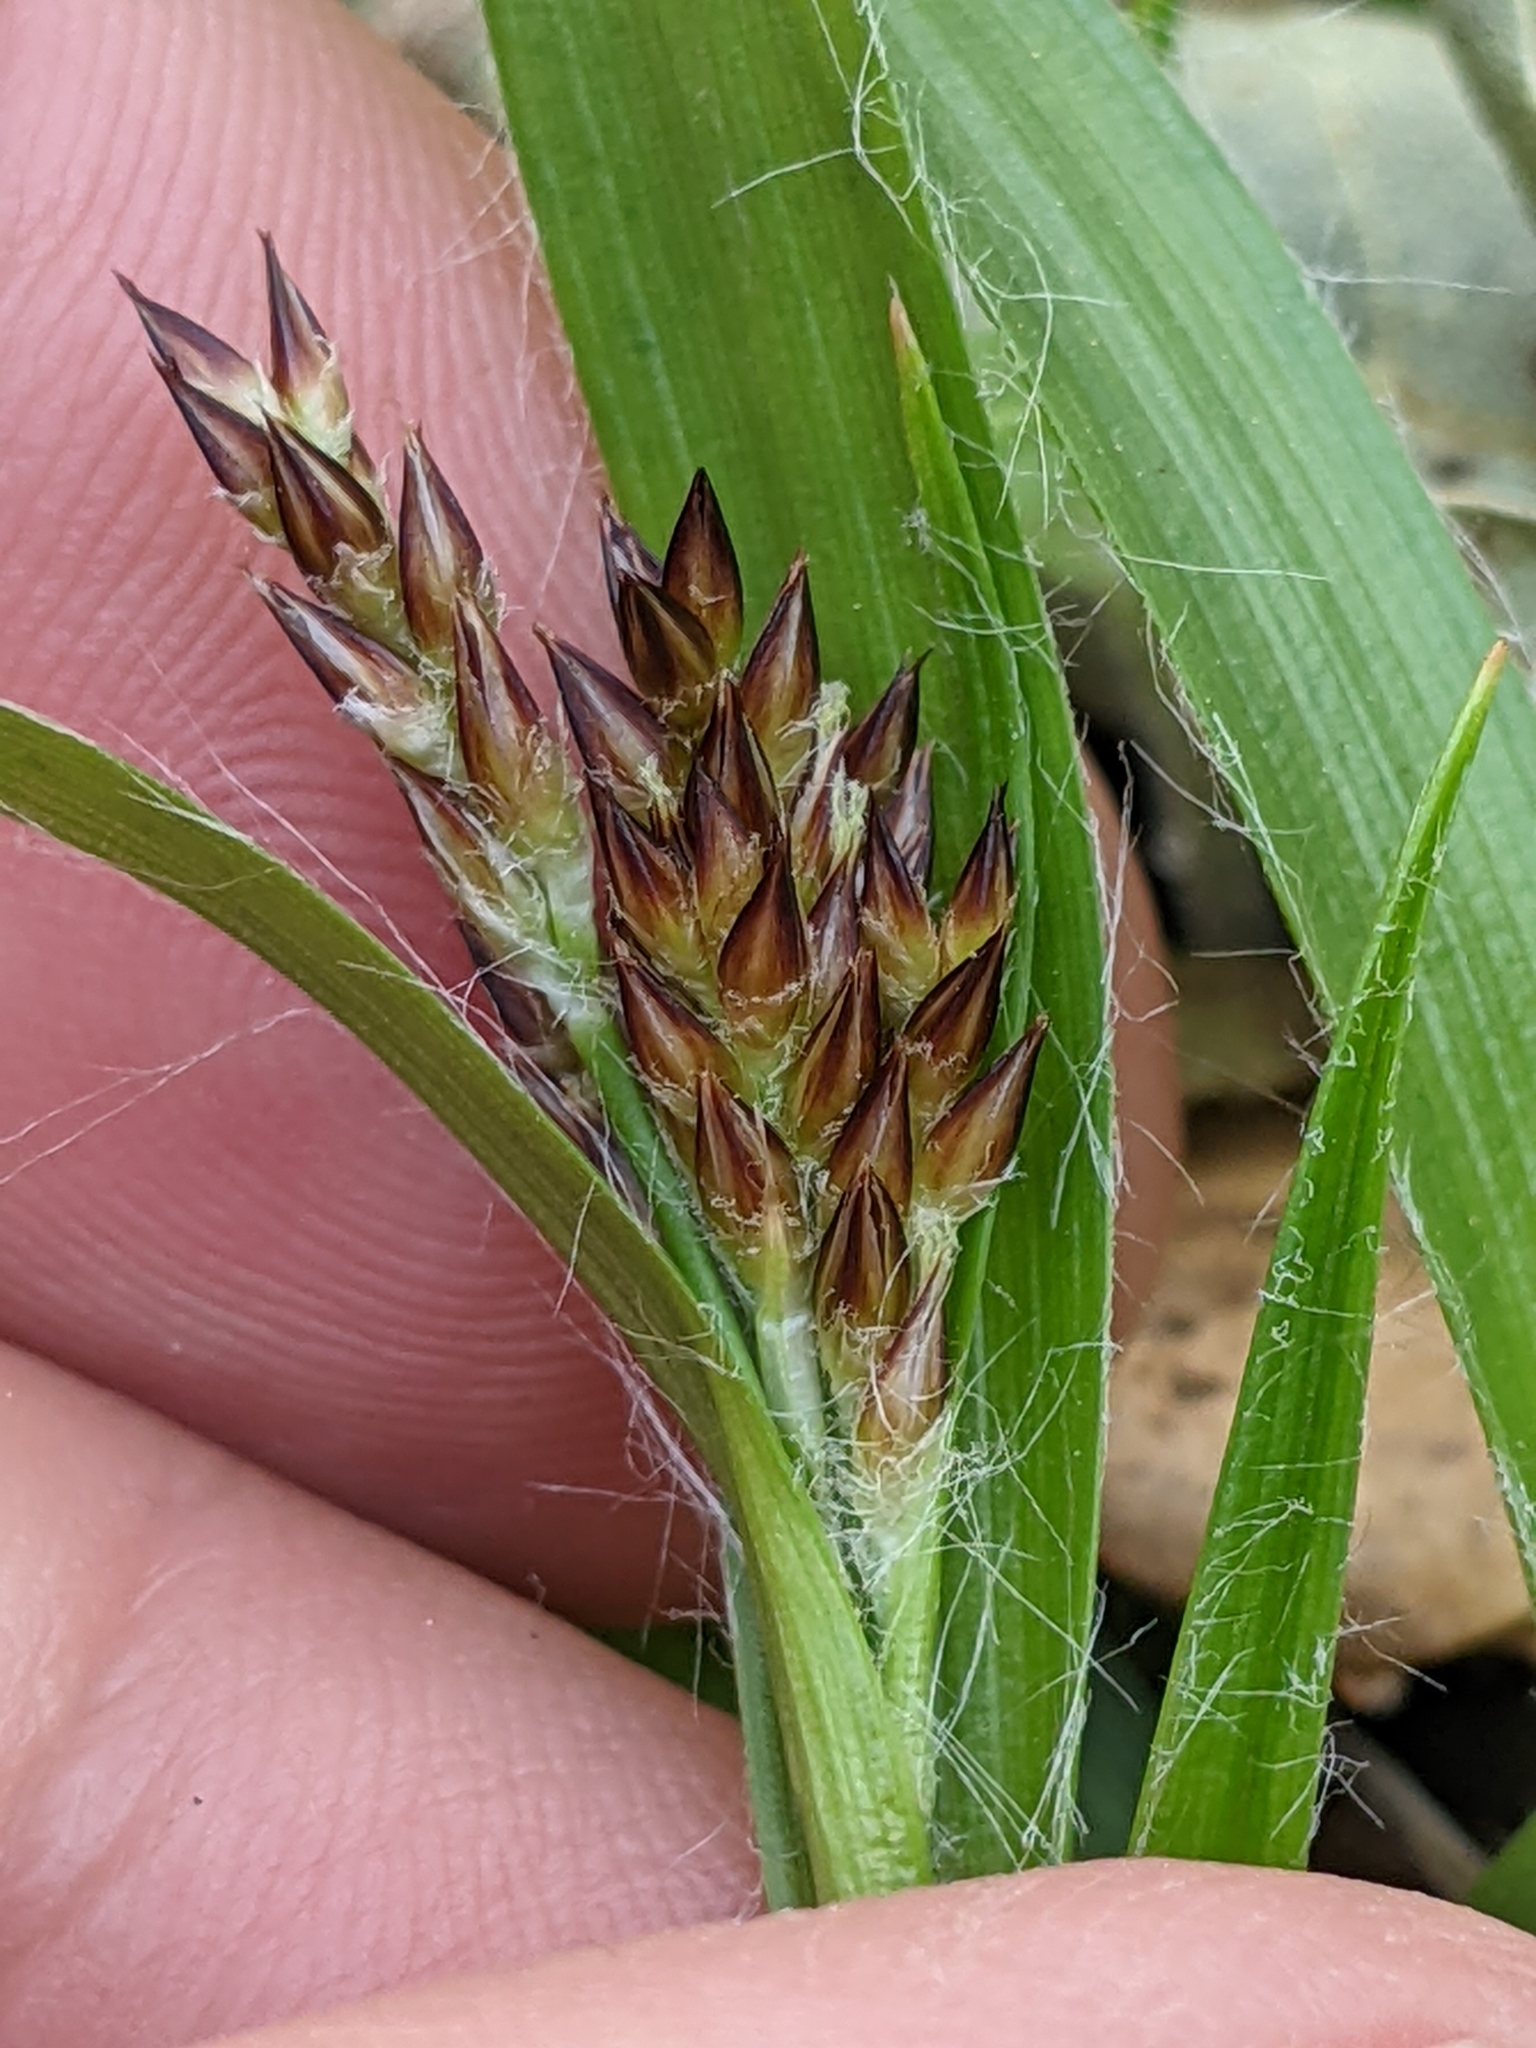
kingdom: Plantae
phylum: Tracheophyta
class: Liliopsida
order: Poales
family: Juncaceae
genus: Luzula
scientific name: Luzula comosa
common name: Pacific woodrush
